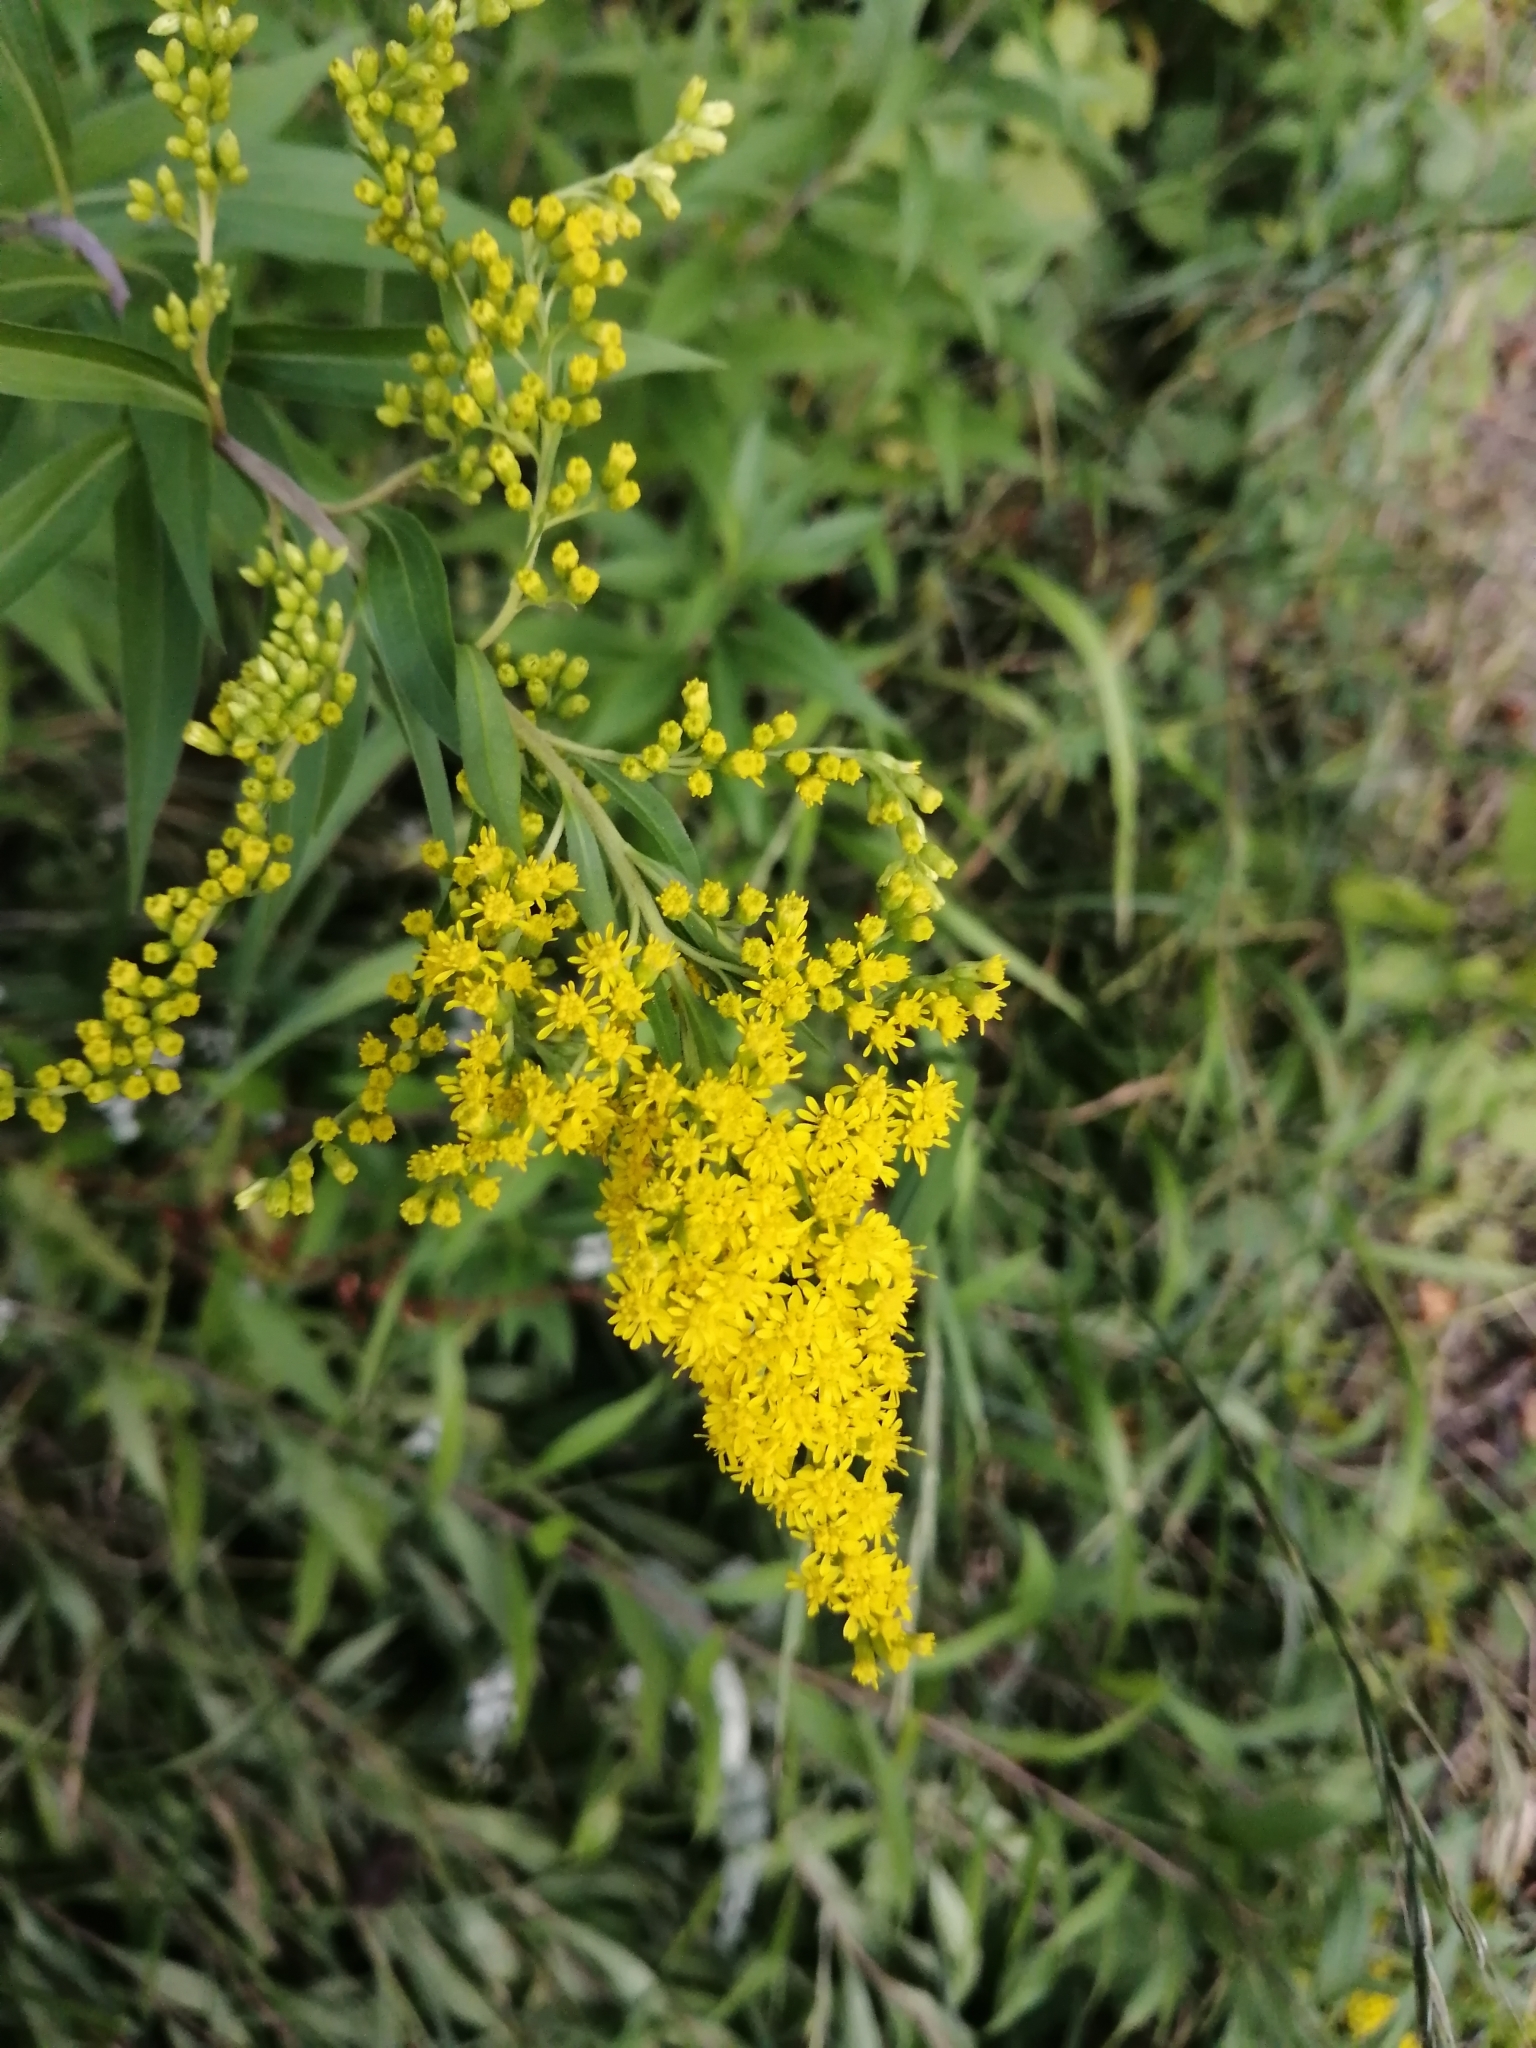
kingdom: Plantae
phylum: Tracheophyta
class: Magnoliopsida
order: Asterales
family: Asteraceae
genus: Solidago
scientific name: Solidago gigantea
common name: Giant goldenrod
